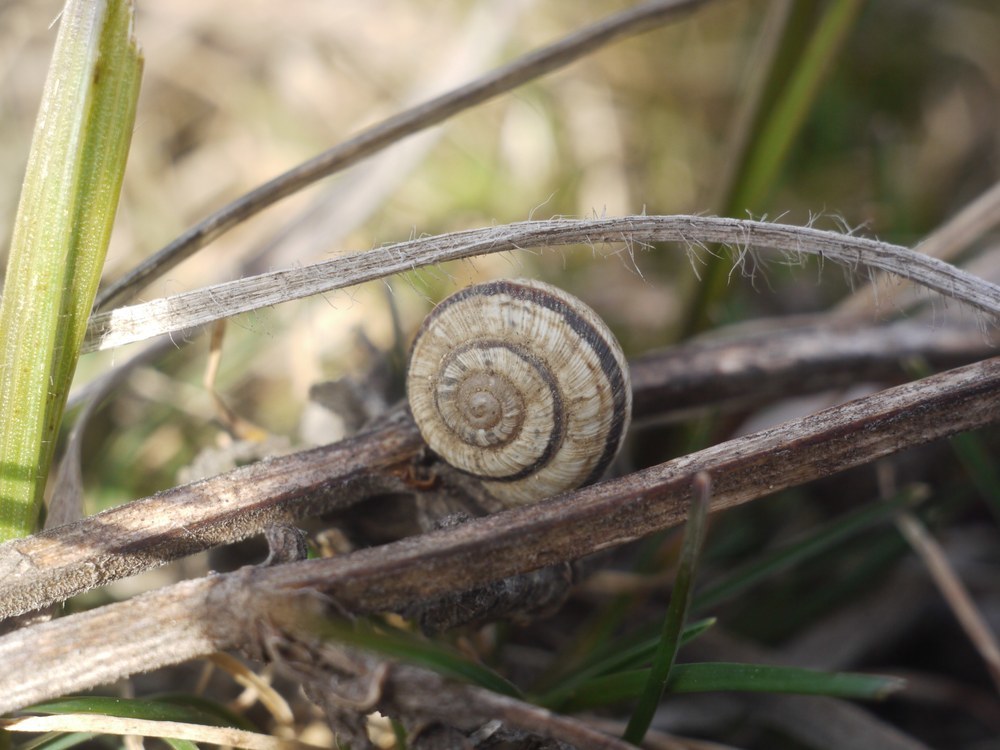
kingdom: Animalia
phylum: Mollusca
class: Gastropoda
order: Stylommatophora
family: Geomitridae
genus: Helicopsis
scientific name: Helicopsis lunulata
